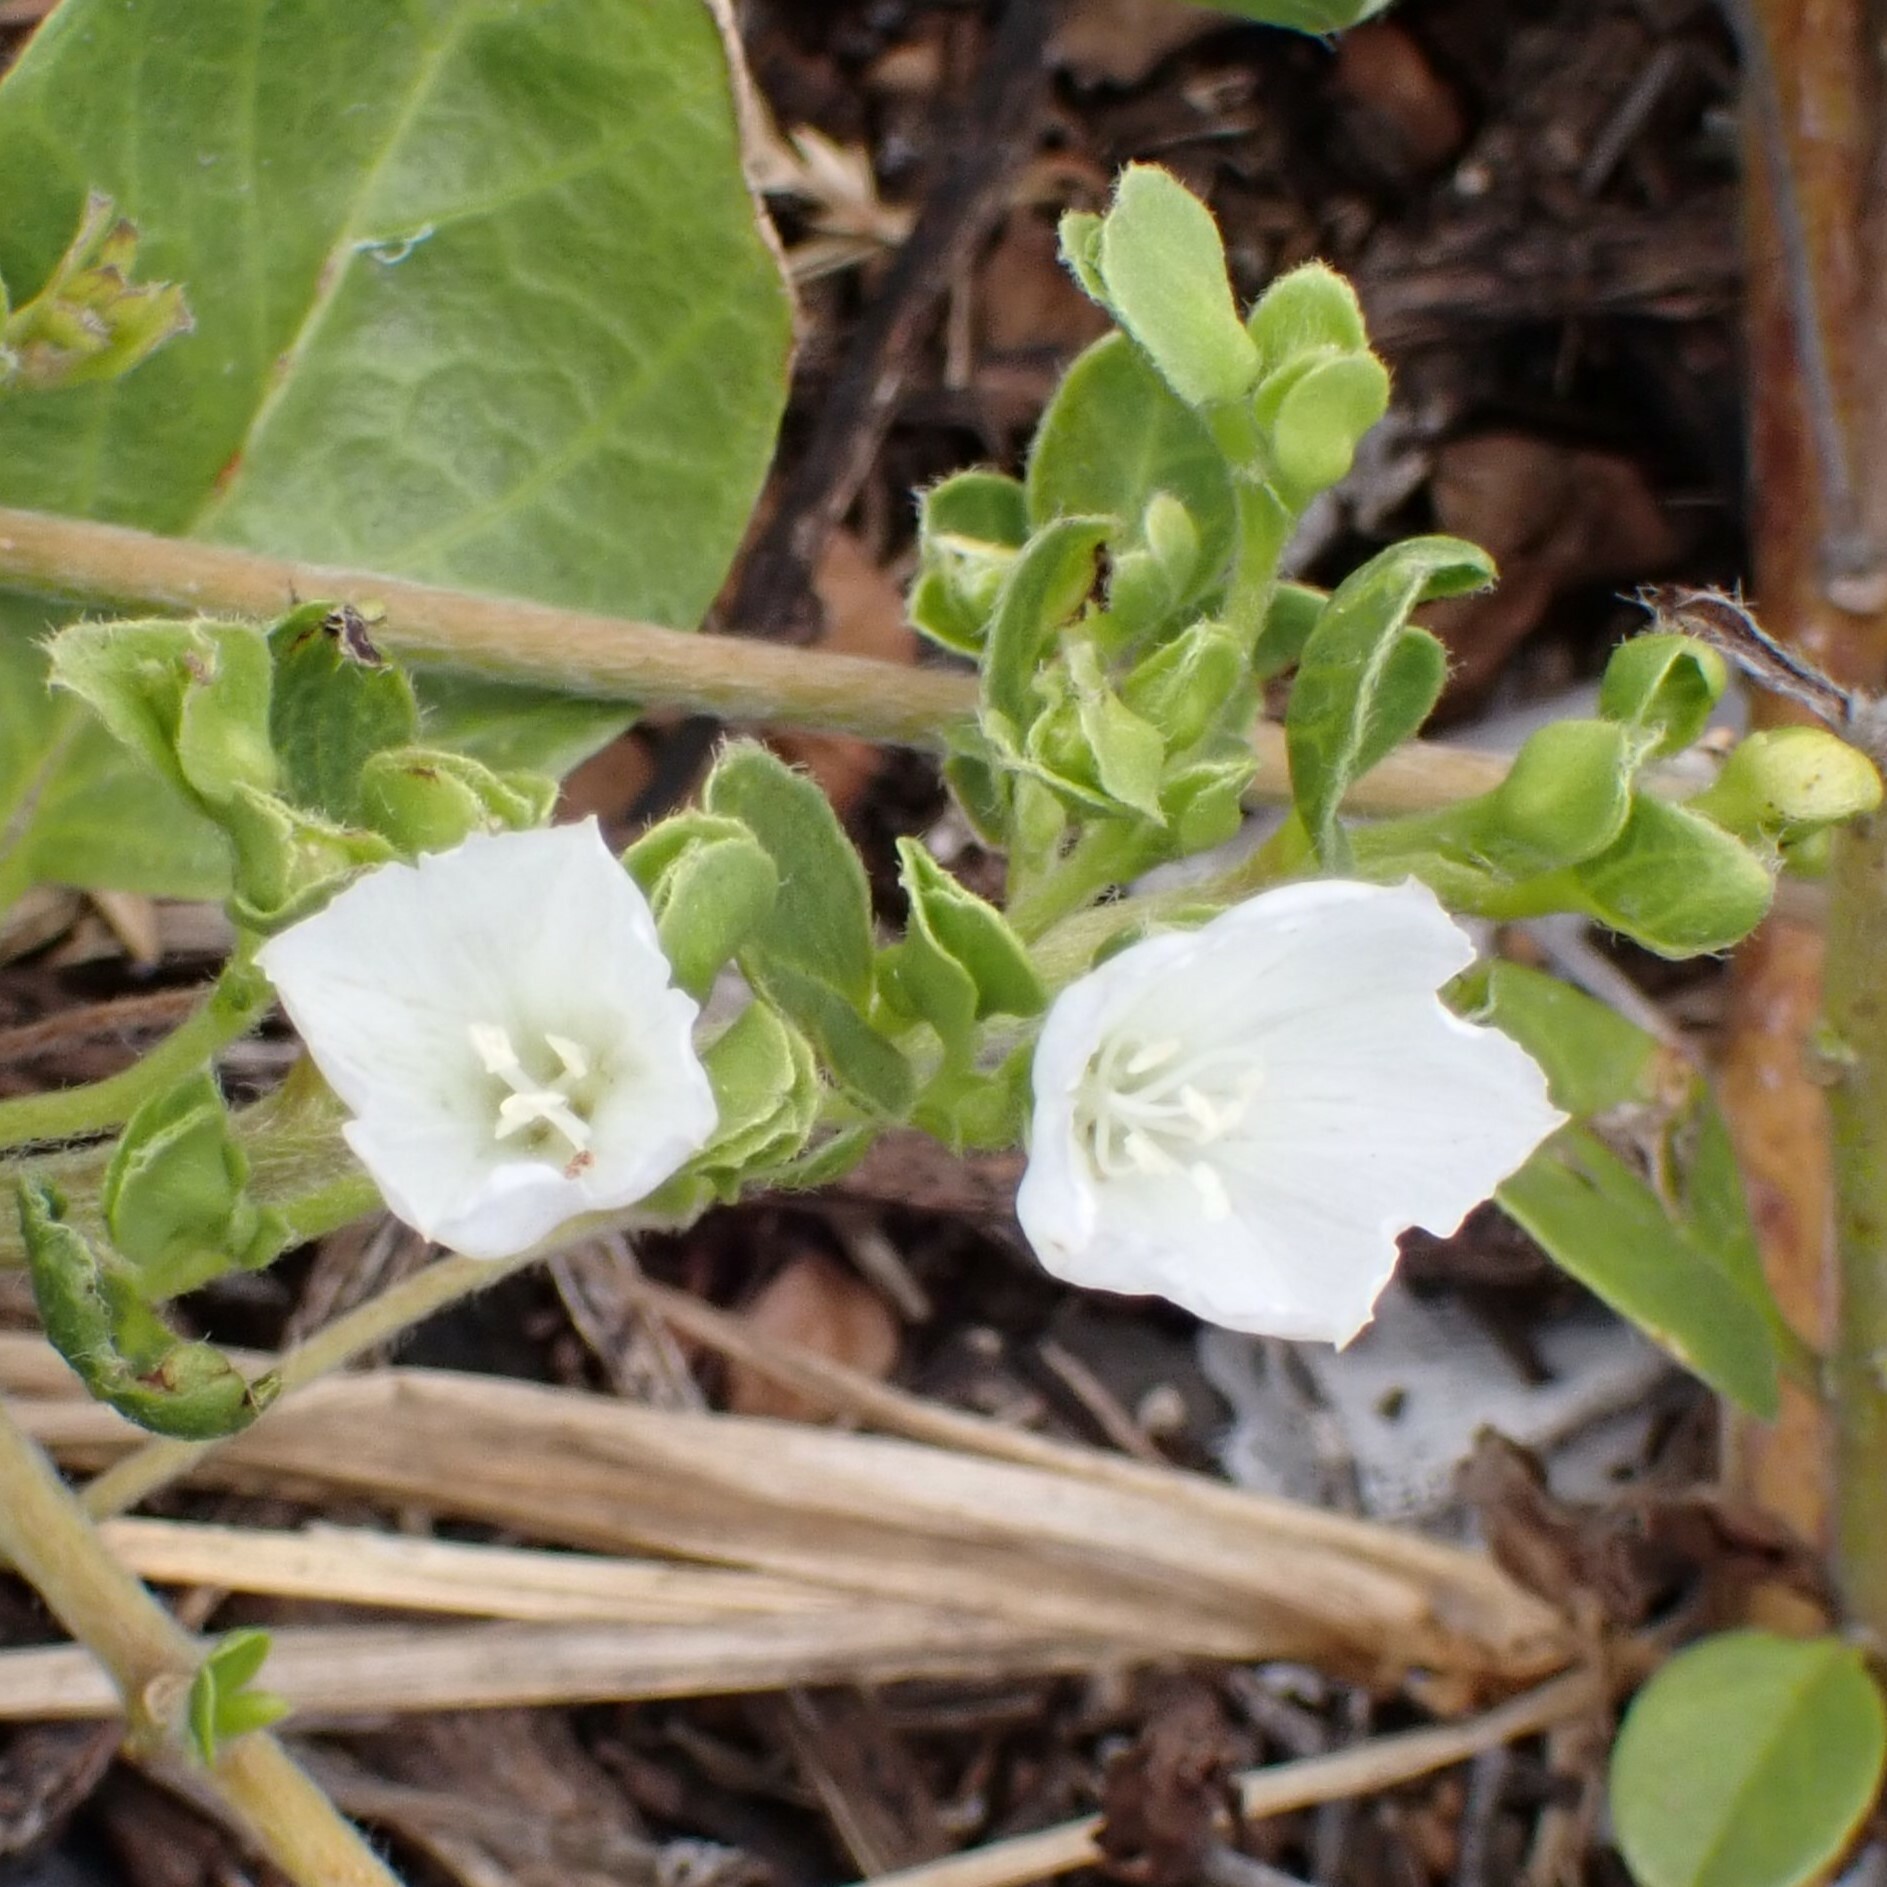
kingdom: Plantae
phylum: Tracheophyta
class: Magnoliopsida
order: Solanales
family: Convolvulaceae
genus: Jacquemontia
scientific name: Jacquemontia sandwicensis
